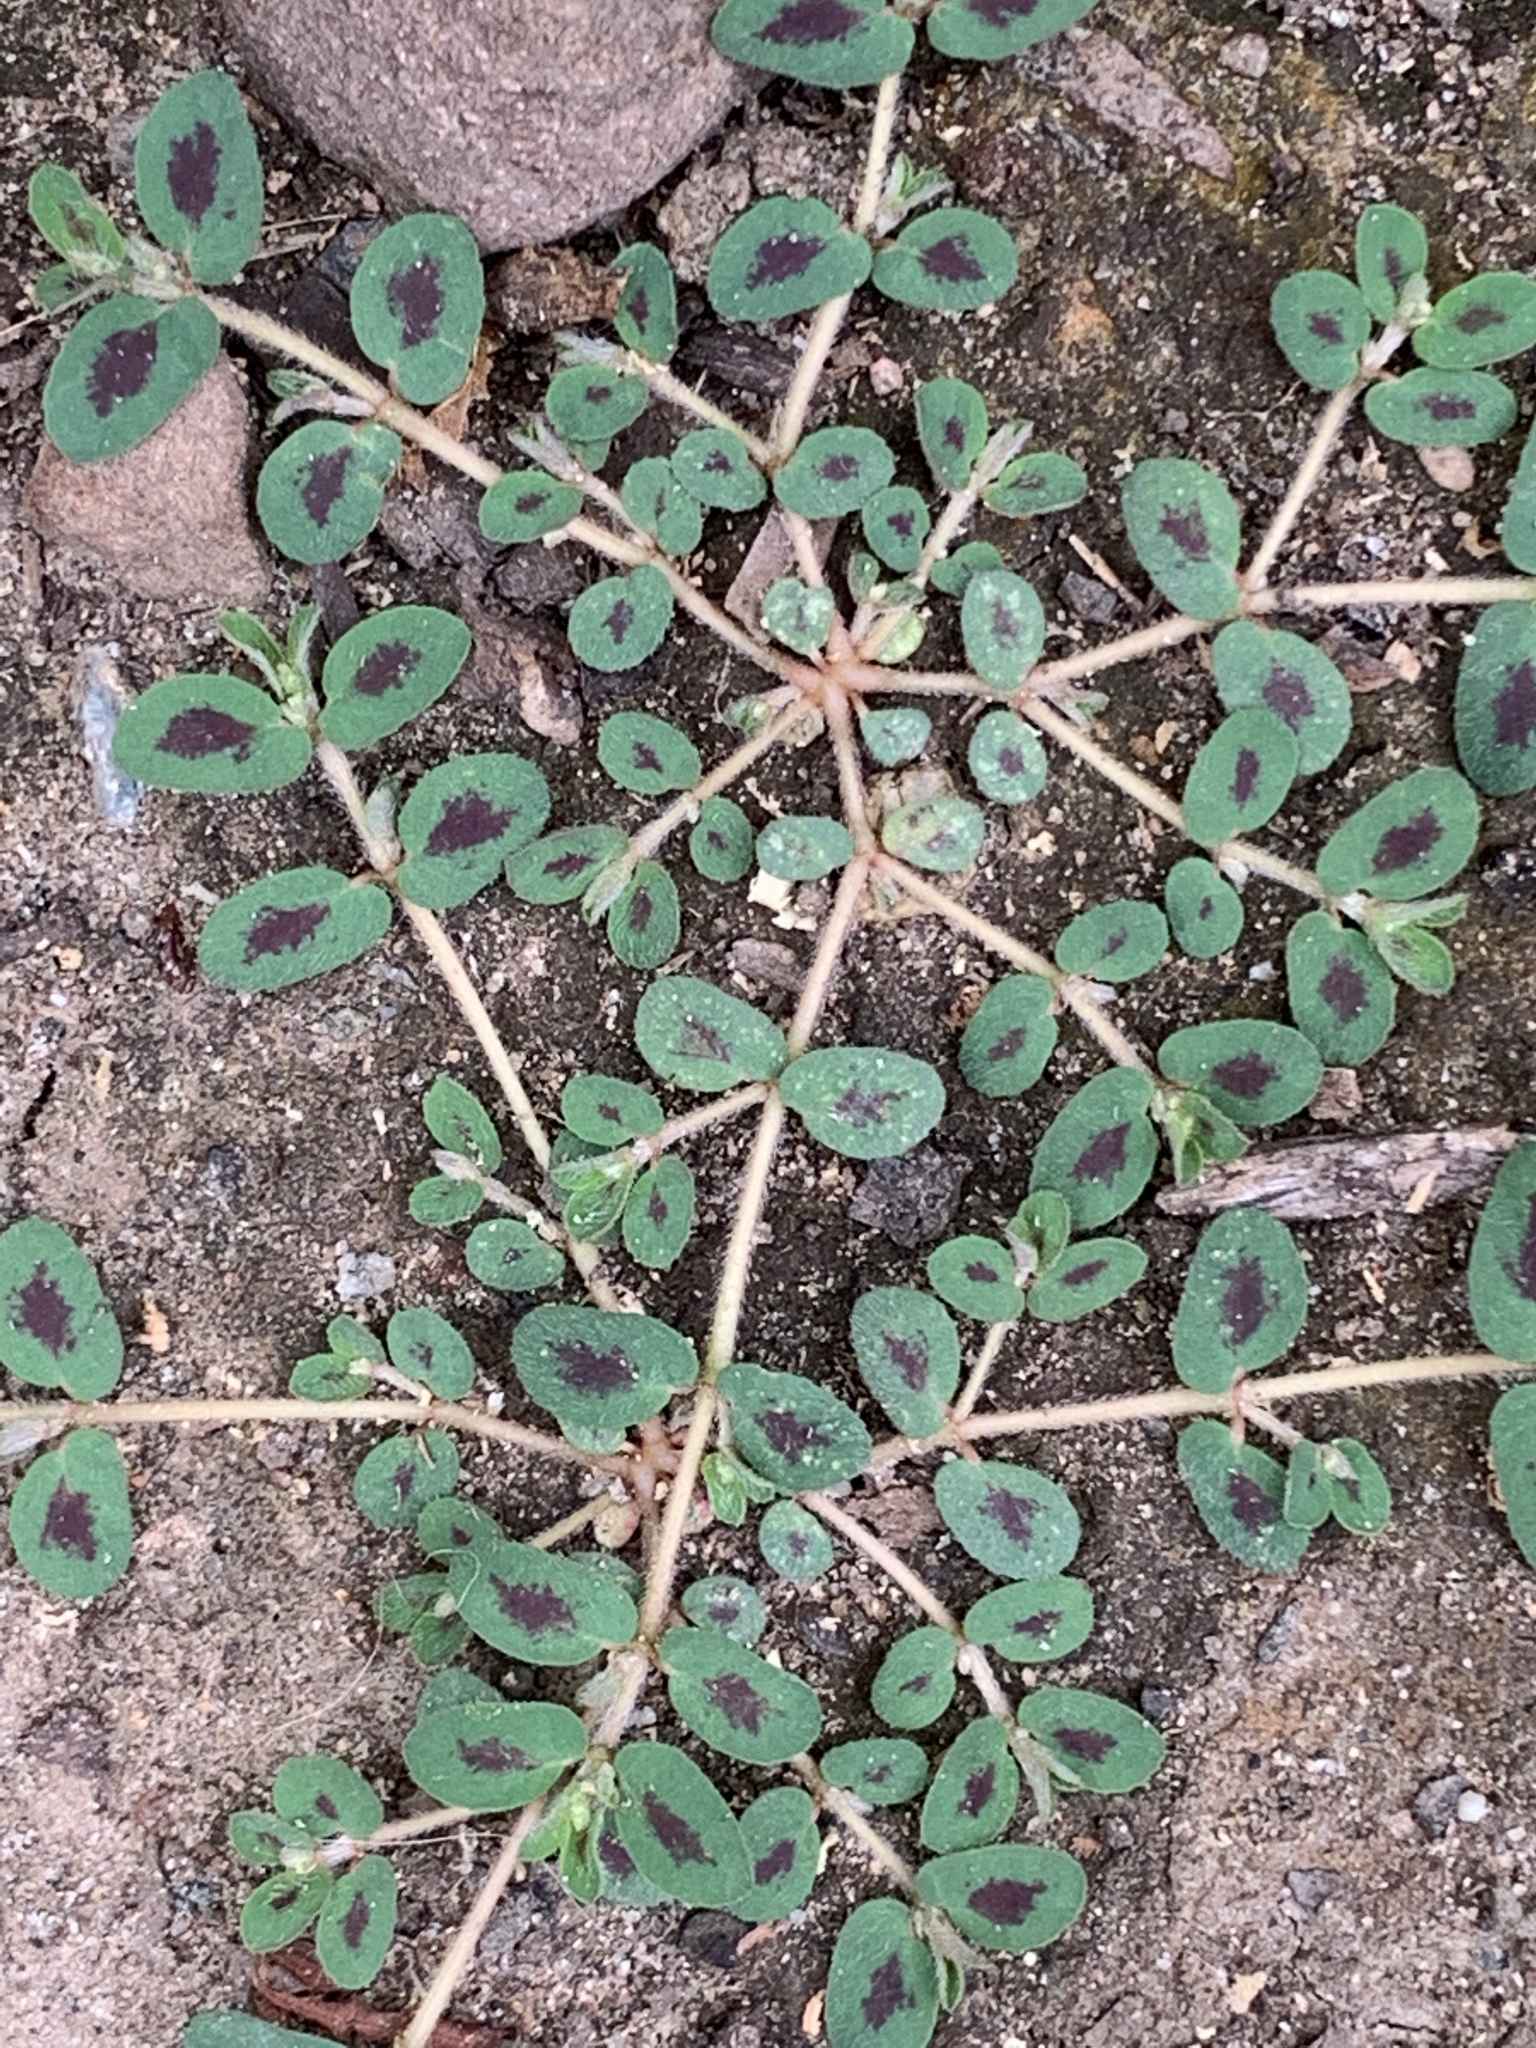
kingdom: Plantae
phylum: Tracheophyta
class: Magnoliopsida
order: Malpighiales
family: Euphorbiaceae
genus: Euphorbia
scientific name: Euphorbia maculata
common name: Spotted spurge
